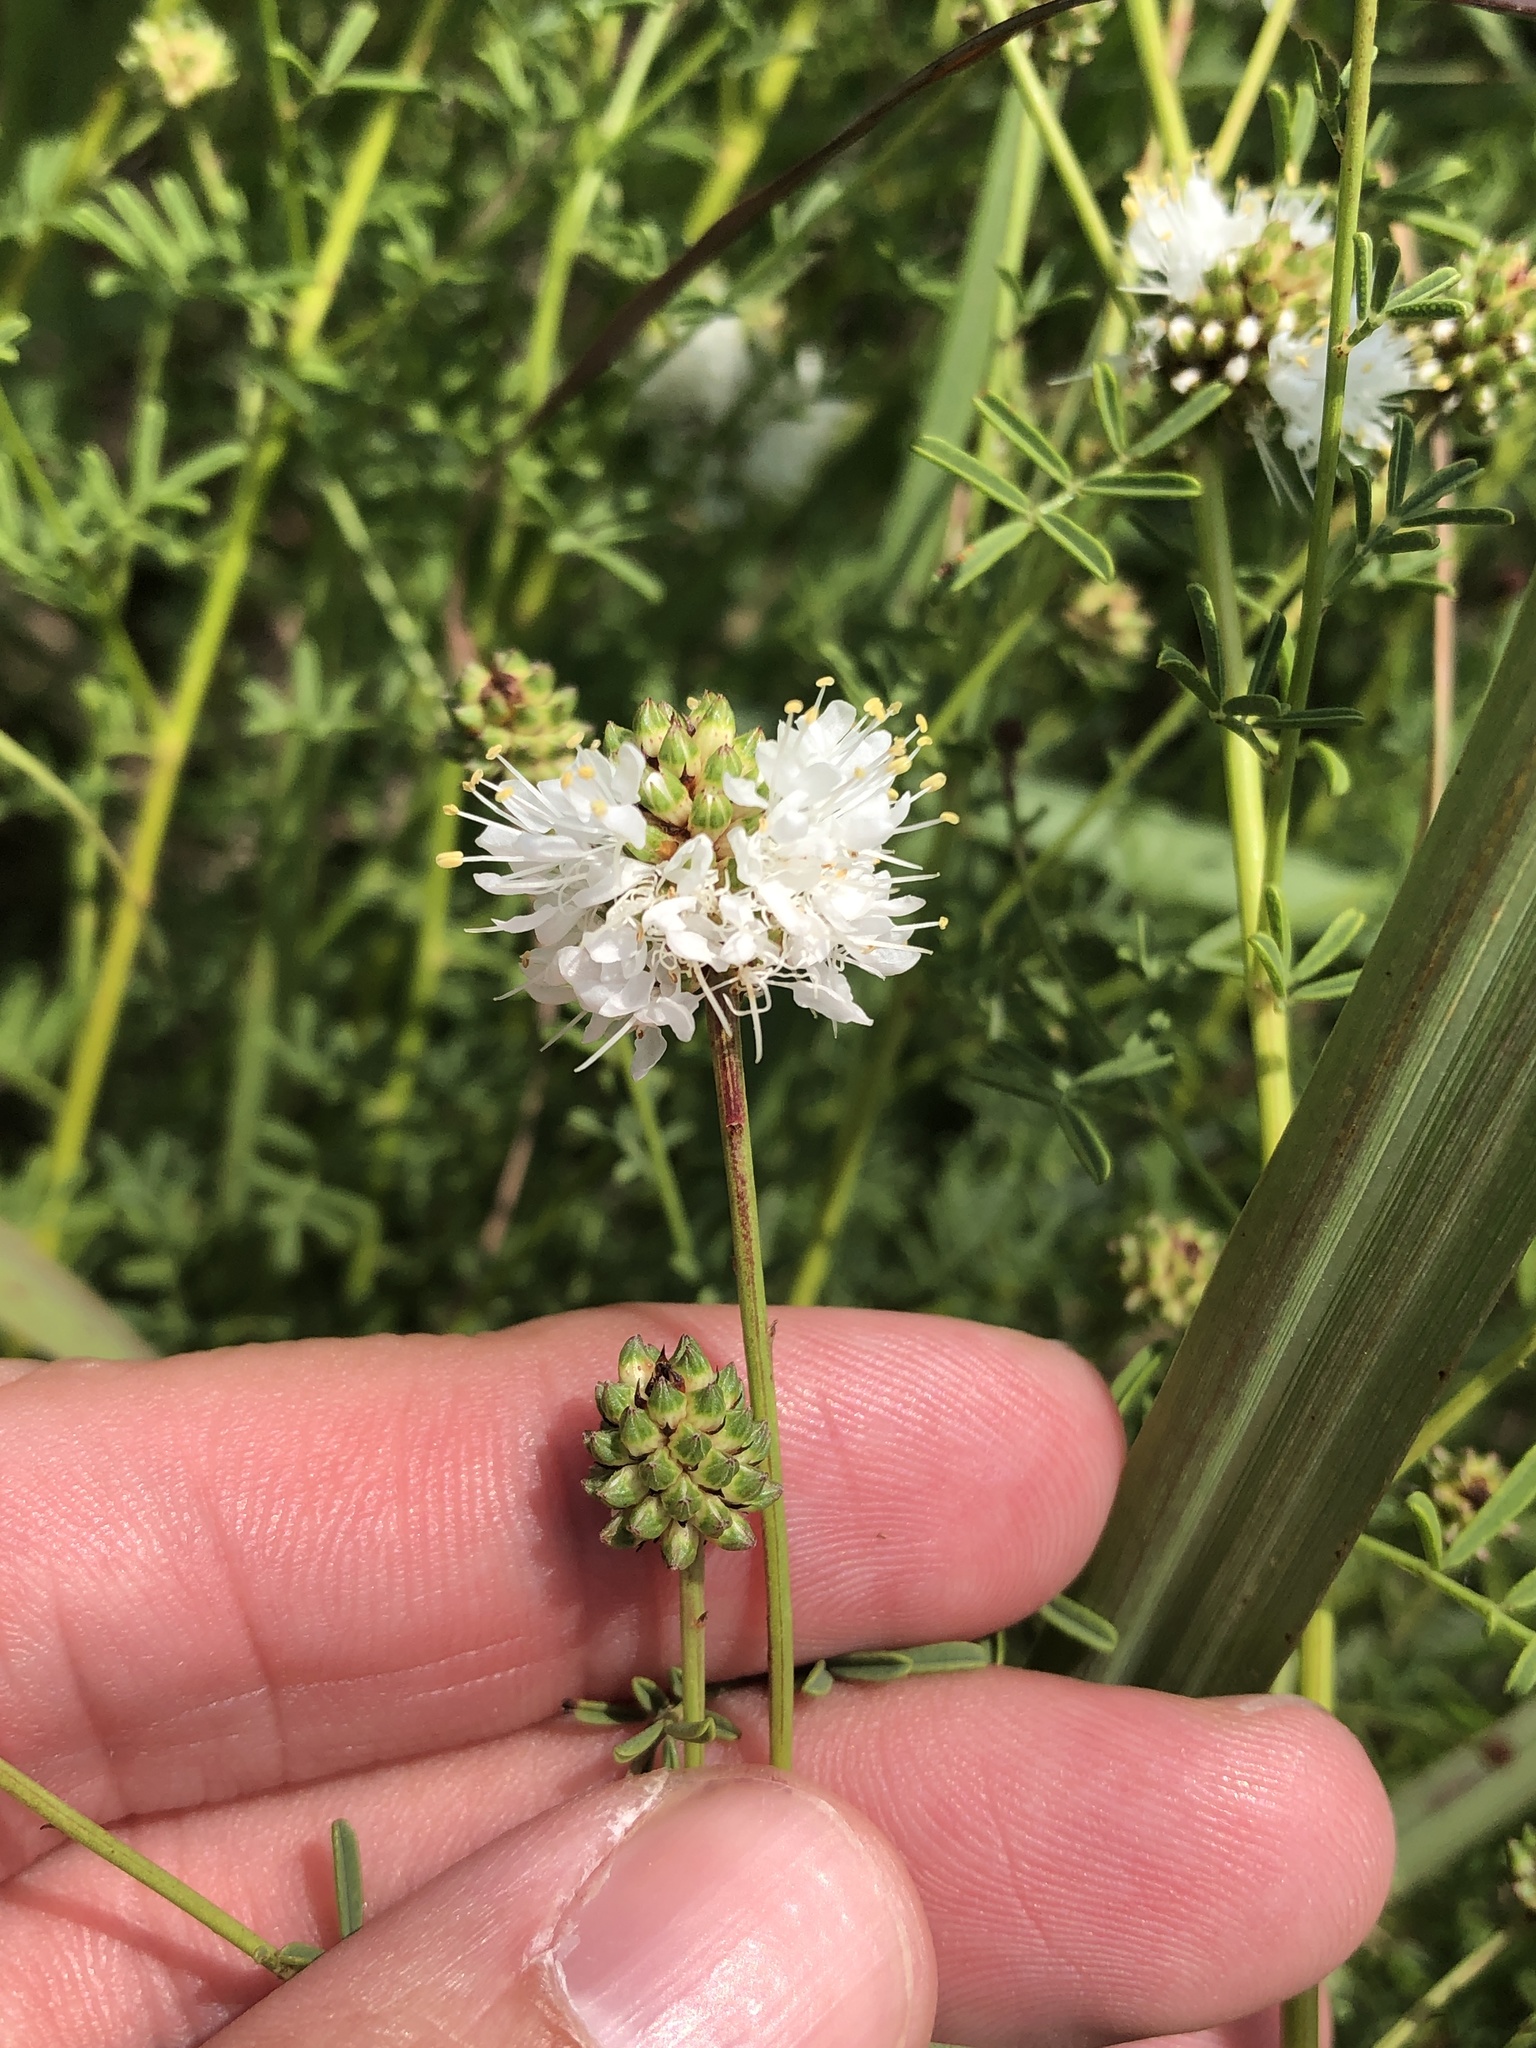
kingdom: Plantae
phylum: Tracheophyta
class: Magnoliopsida
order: Fabales
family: Fabaceae
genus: Dalea
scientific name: Dalea multiflora
